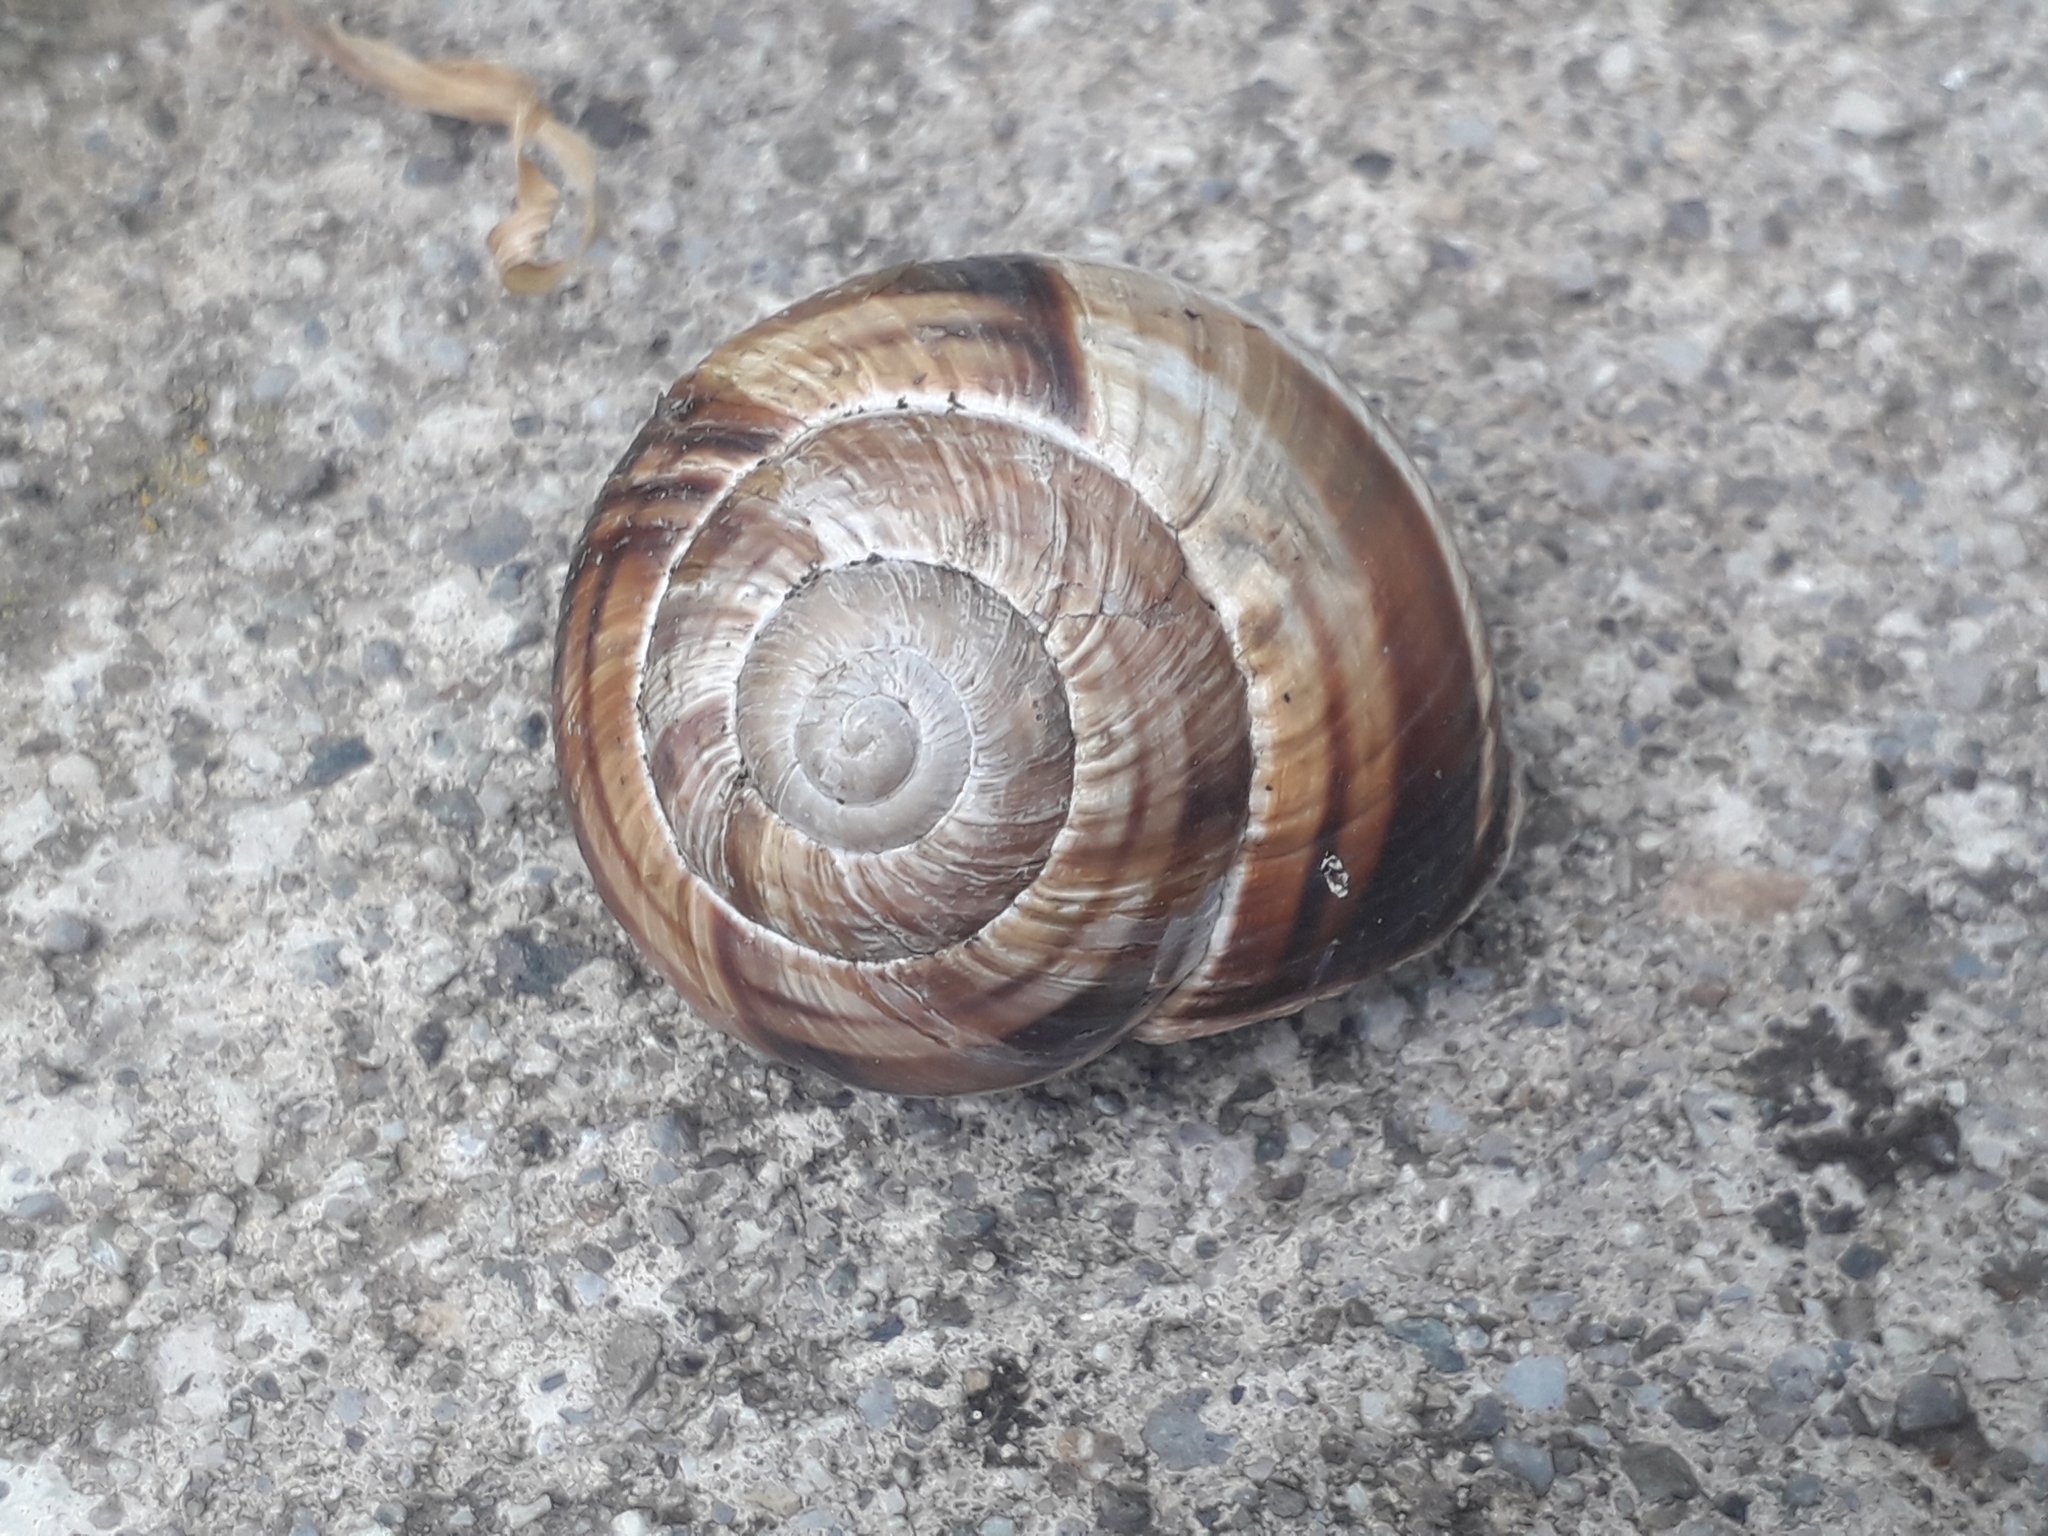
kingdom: Animalia
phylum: Mollusca
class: Gastropoda
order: Stylommatophora
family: Helicidae
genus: Helix
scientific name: Helix lucorum
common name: Turkish snail
